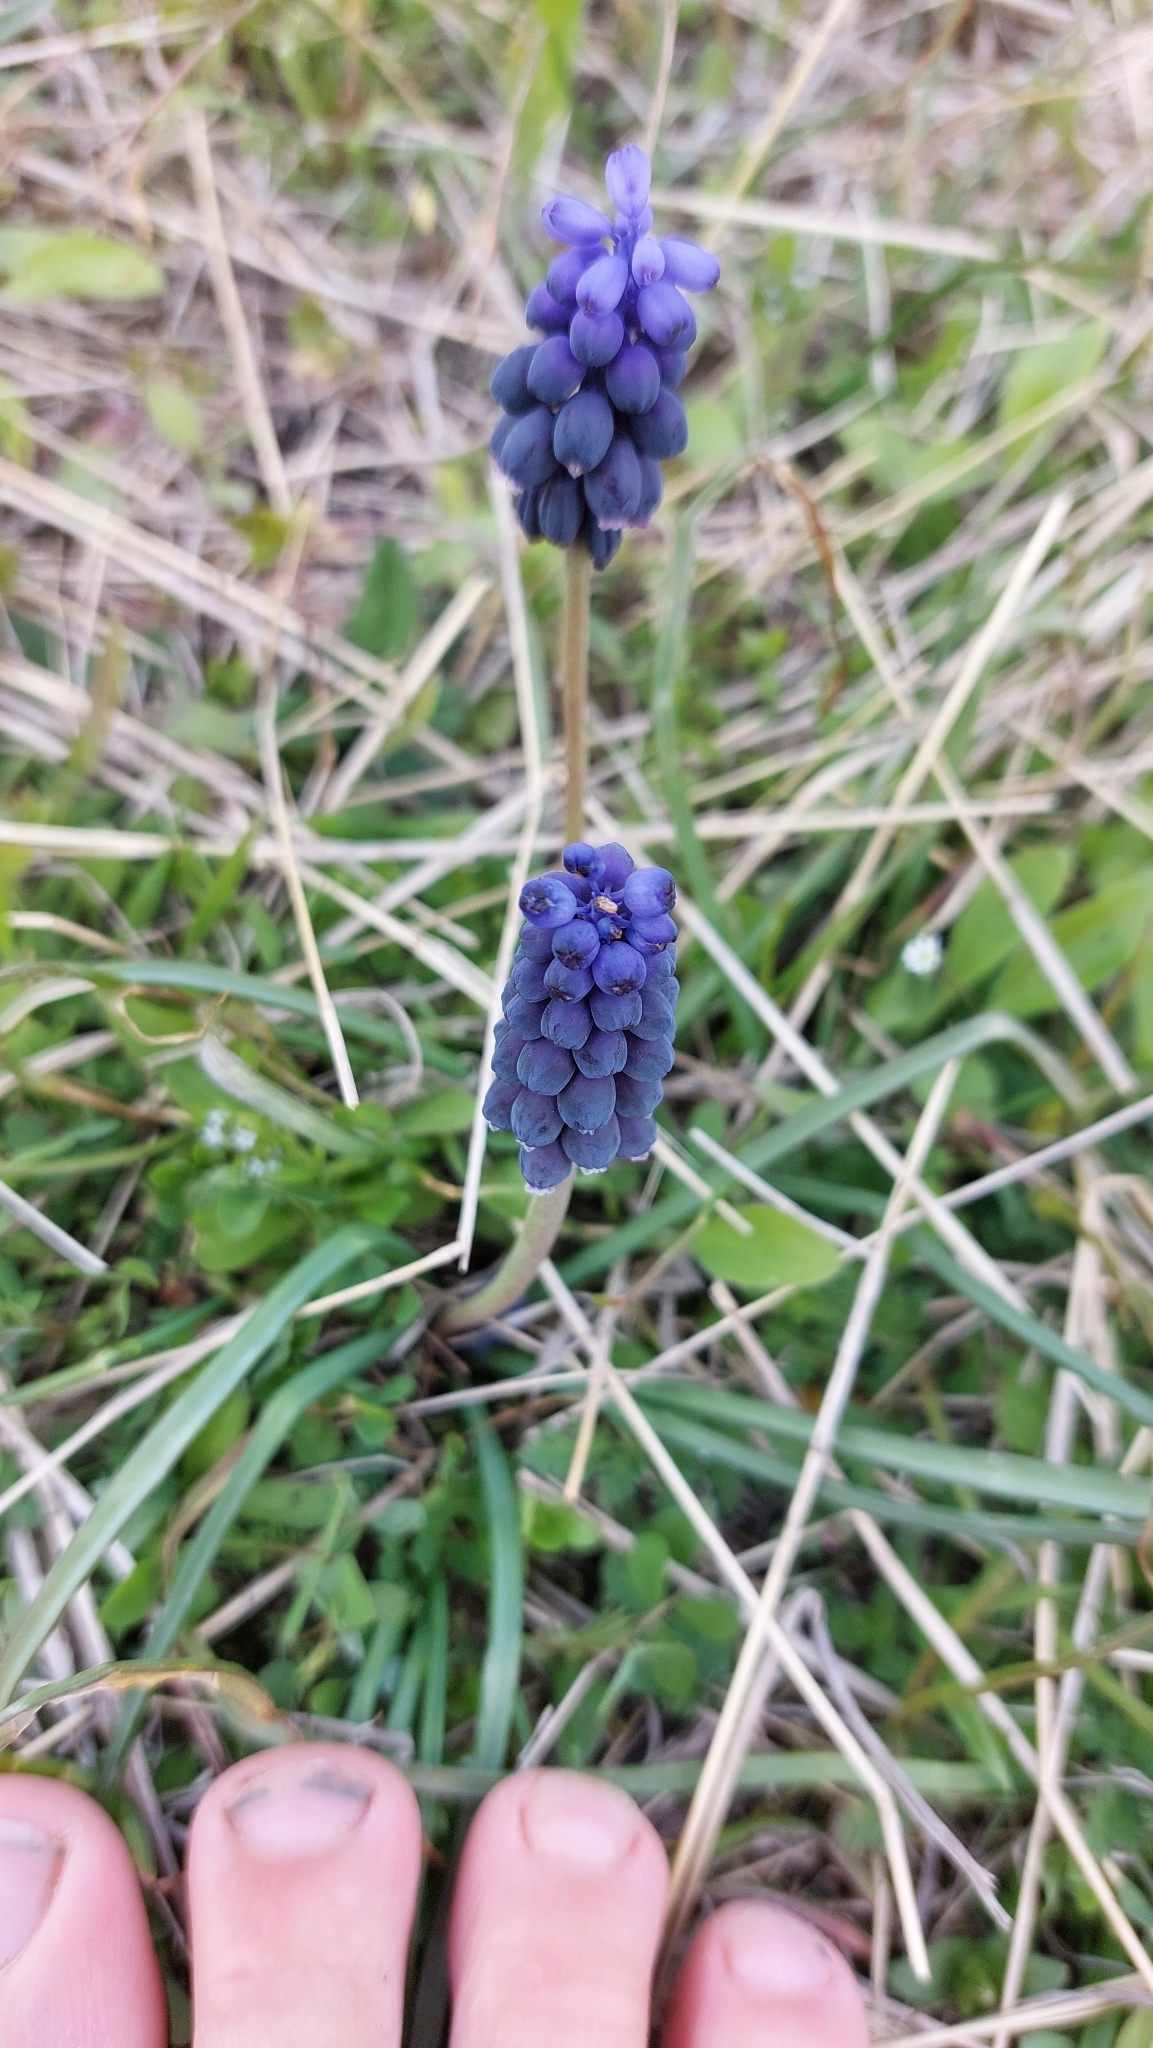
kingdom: Plantae
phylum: Tracheophyta
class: Liliopsida
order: Asparagales
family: Asparagaceae
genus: Muscari
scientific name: Muscari neglectum
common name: Grape-hyacinth
